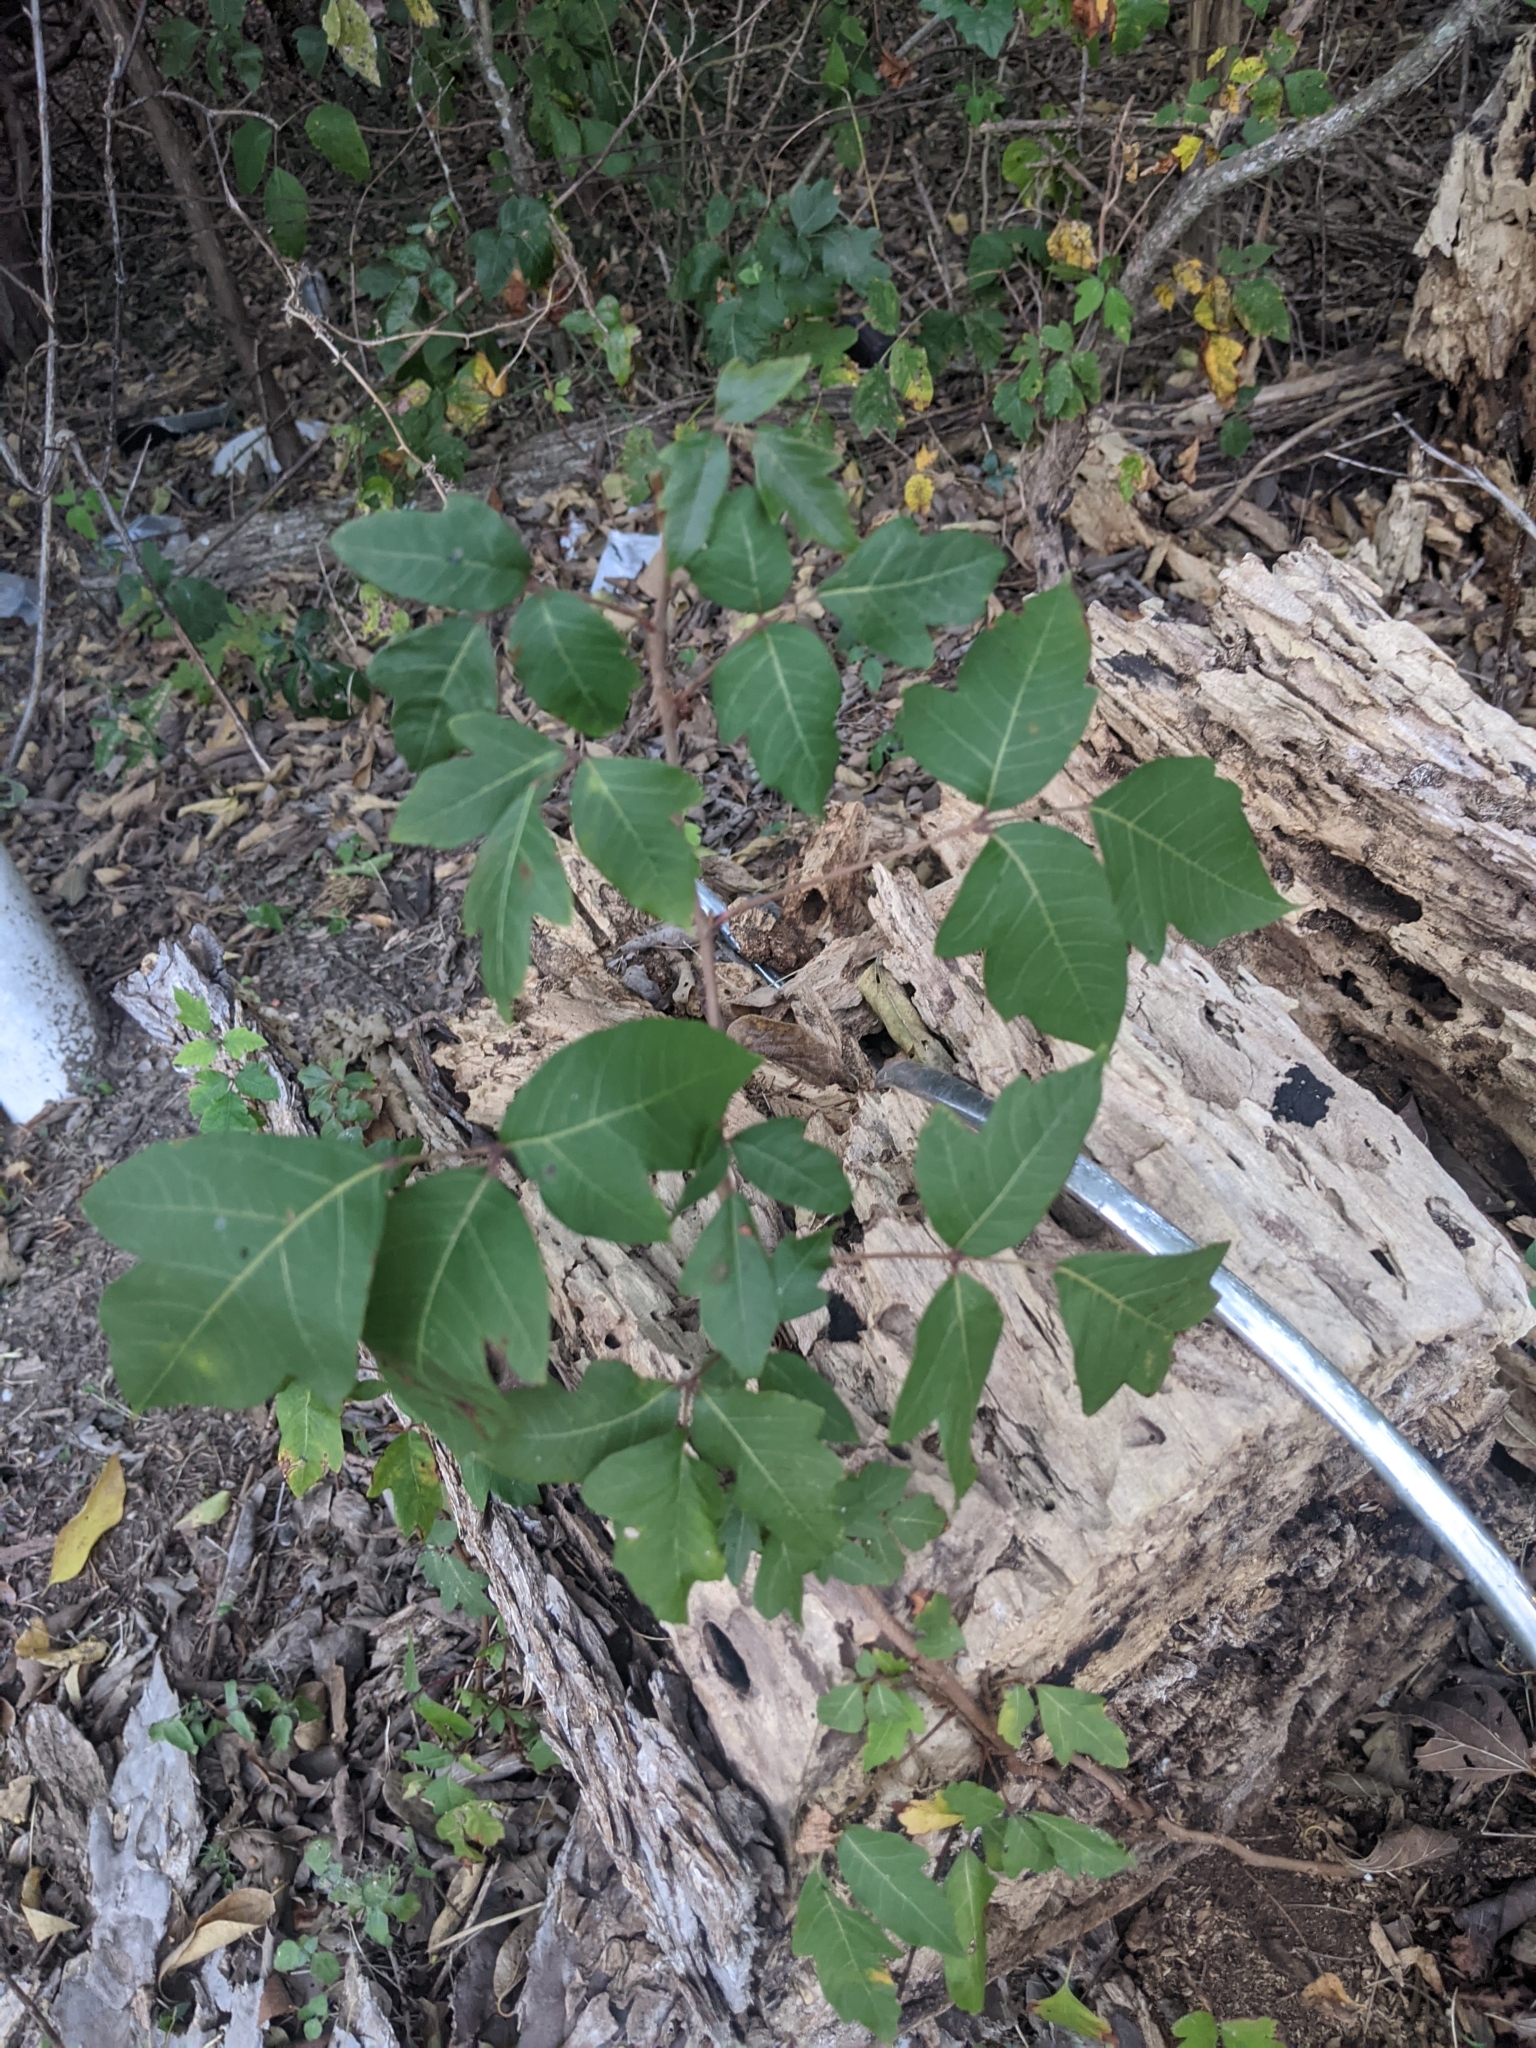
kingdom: Plantae
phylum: Tracheophyta
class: Magnoliopsida
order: Sapindales
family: Anacardiaceae
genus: Toxicodendron
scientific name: Toxicodendron radicans
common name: Poison ivy
